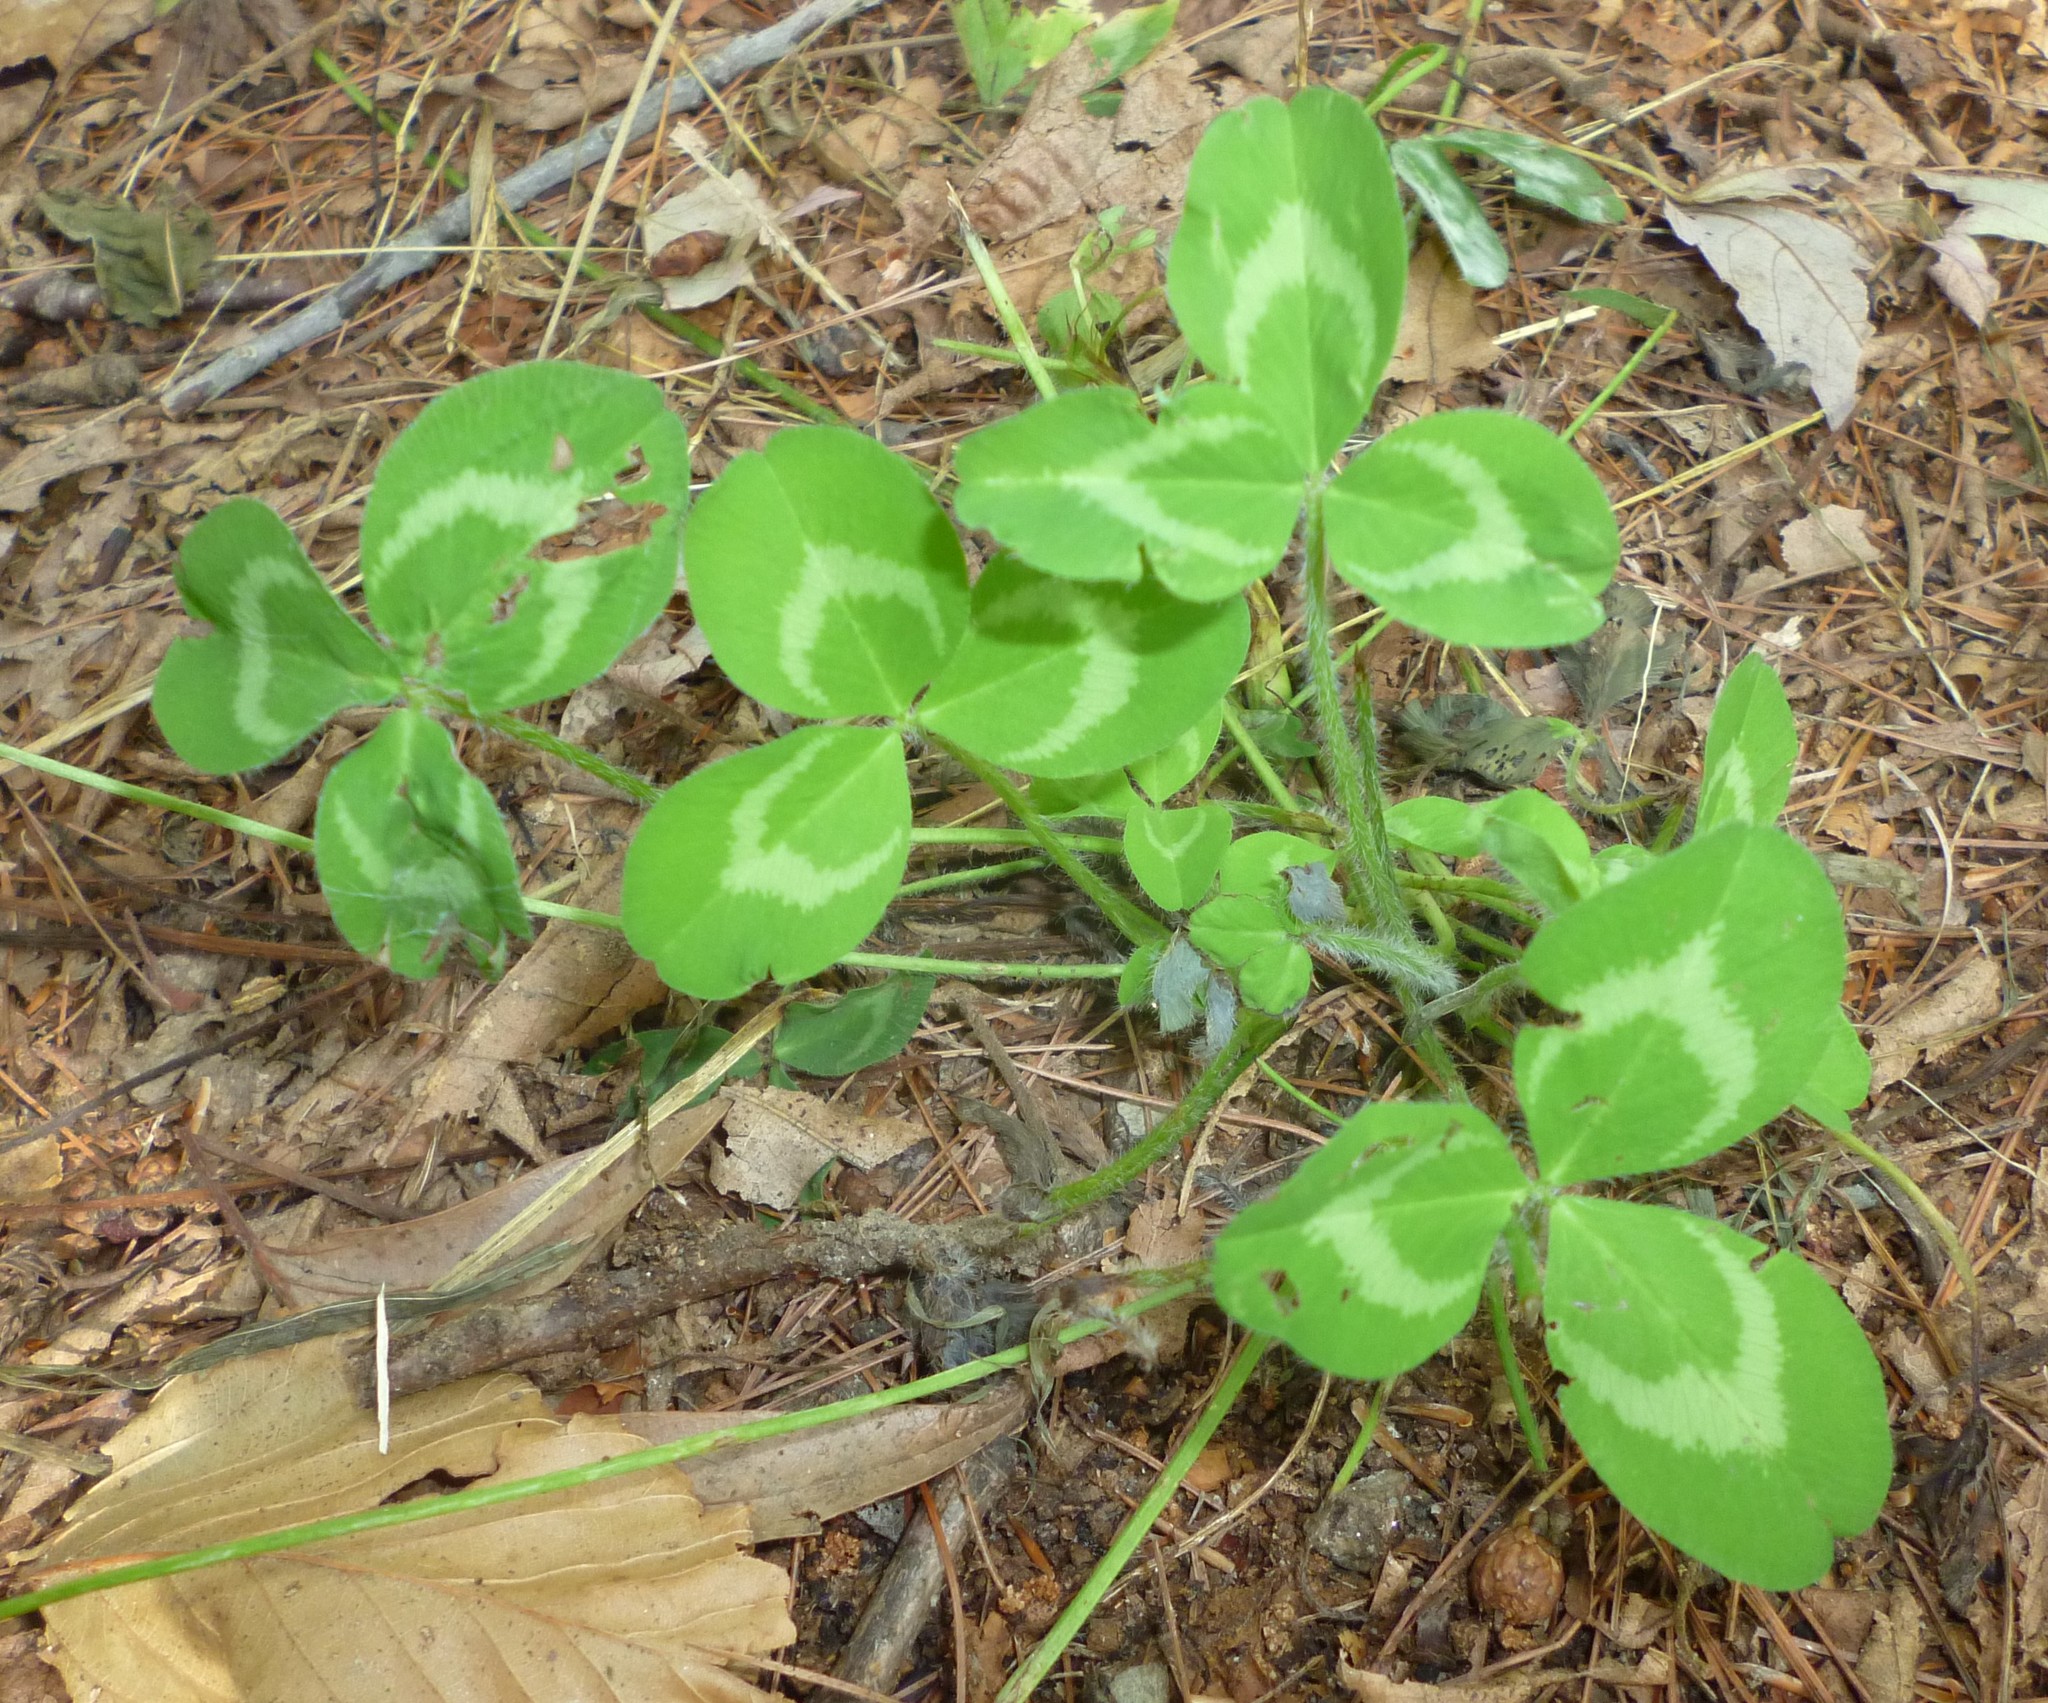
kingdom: Plantae
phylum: Tracheophyta
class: Magnoliopsida
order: Fabales
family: Fabaceae
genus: Trifolium
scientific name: Trifolium pratense
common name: Red clover
